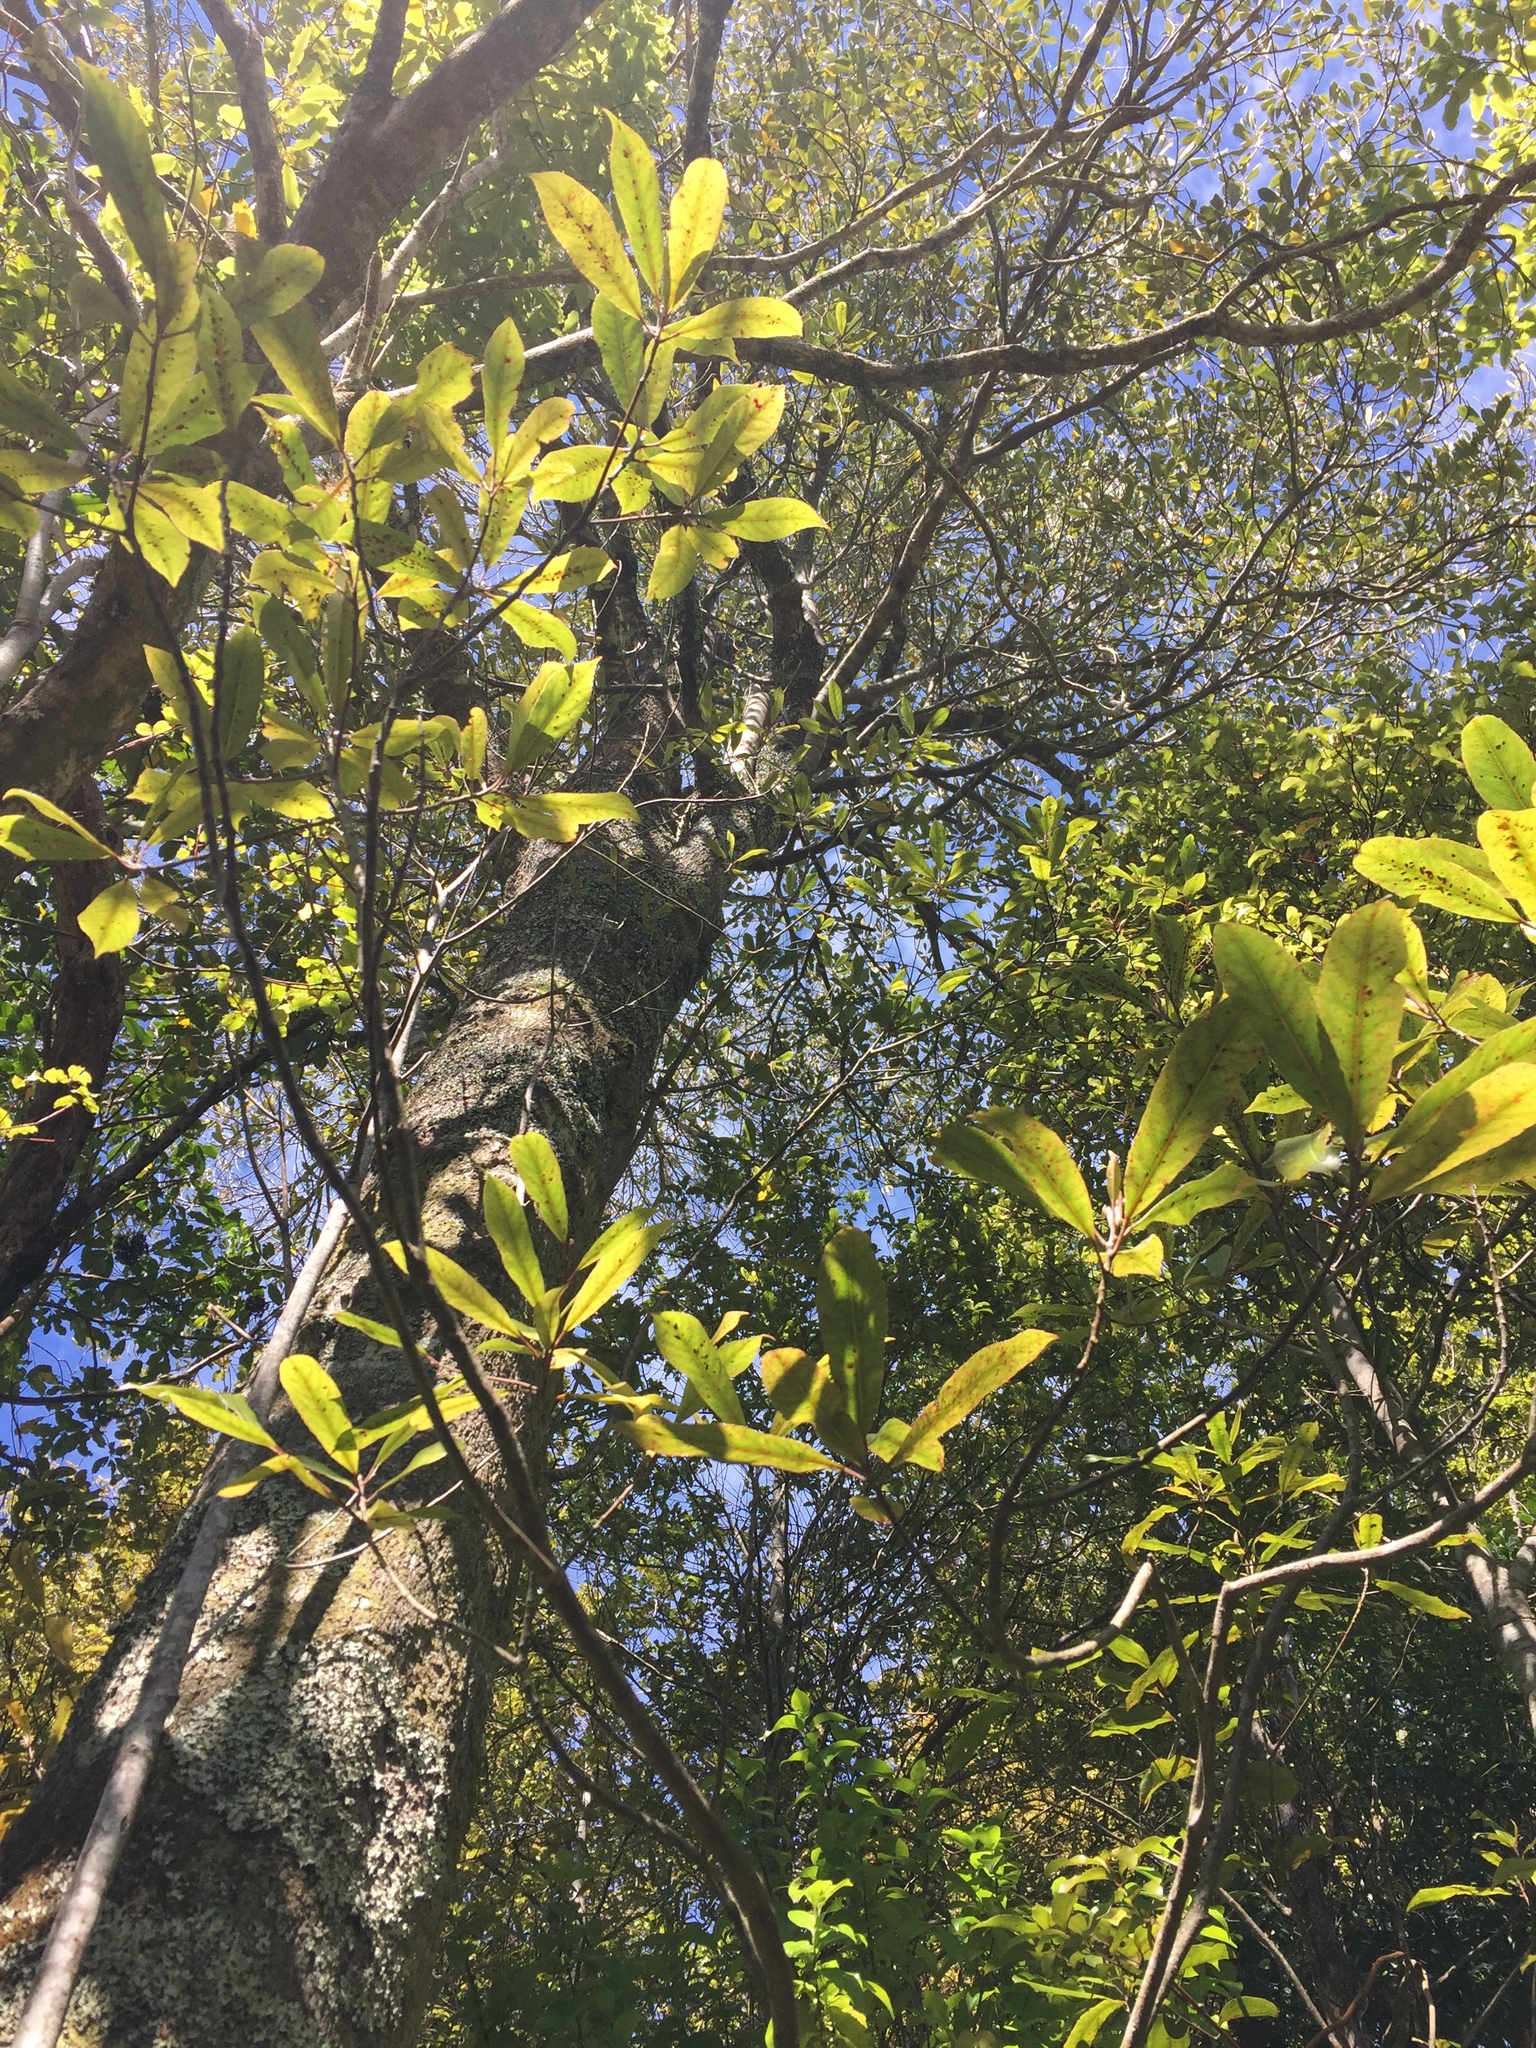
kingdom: Plantae
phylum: Tracheophyta
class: Magnoliopsida
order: Oxalidales
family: Elaeocarpaceae
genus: Elaeocarpus
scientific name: Elaeocarpus dentatus
